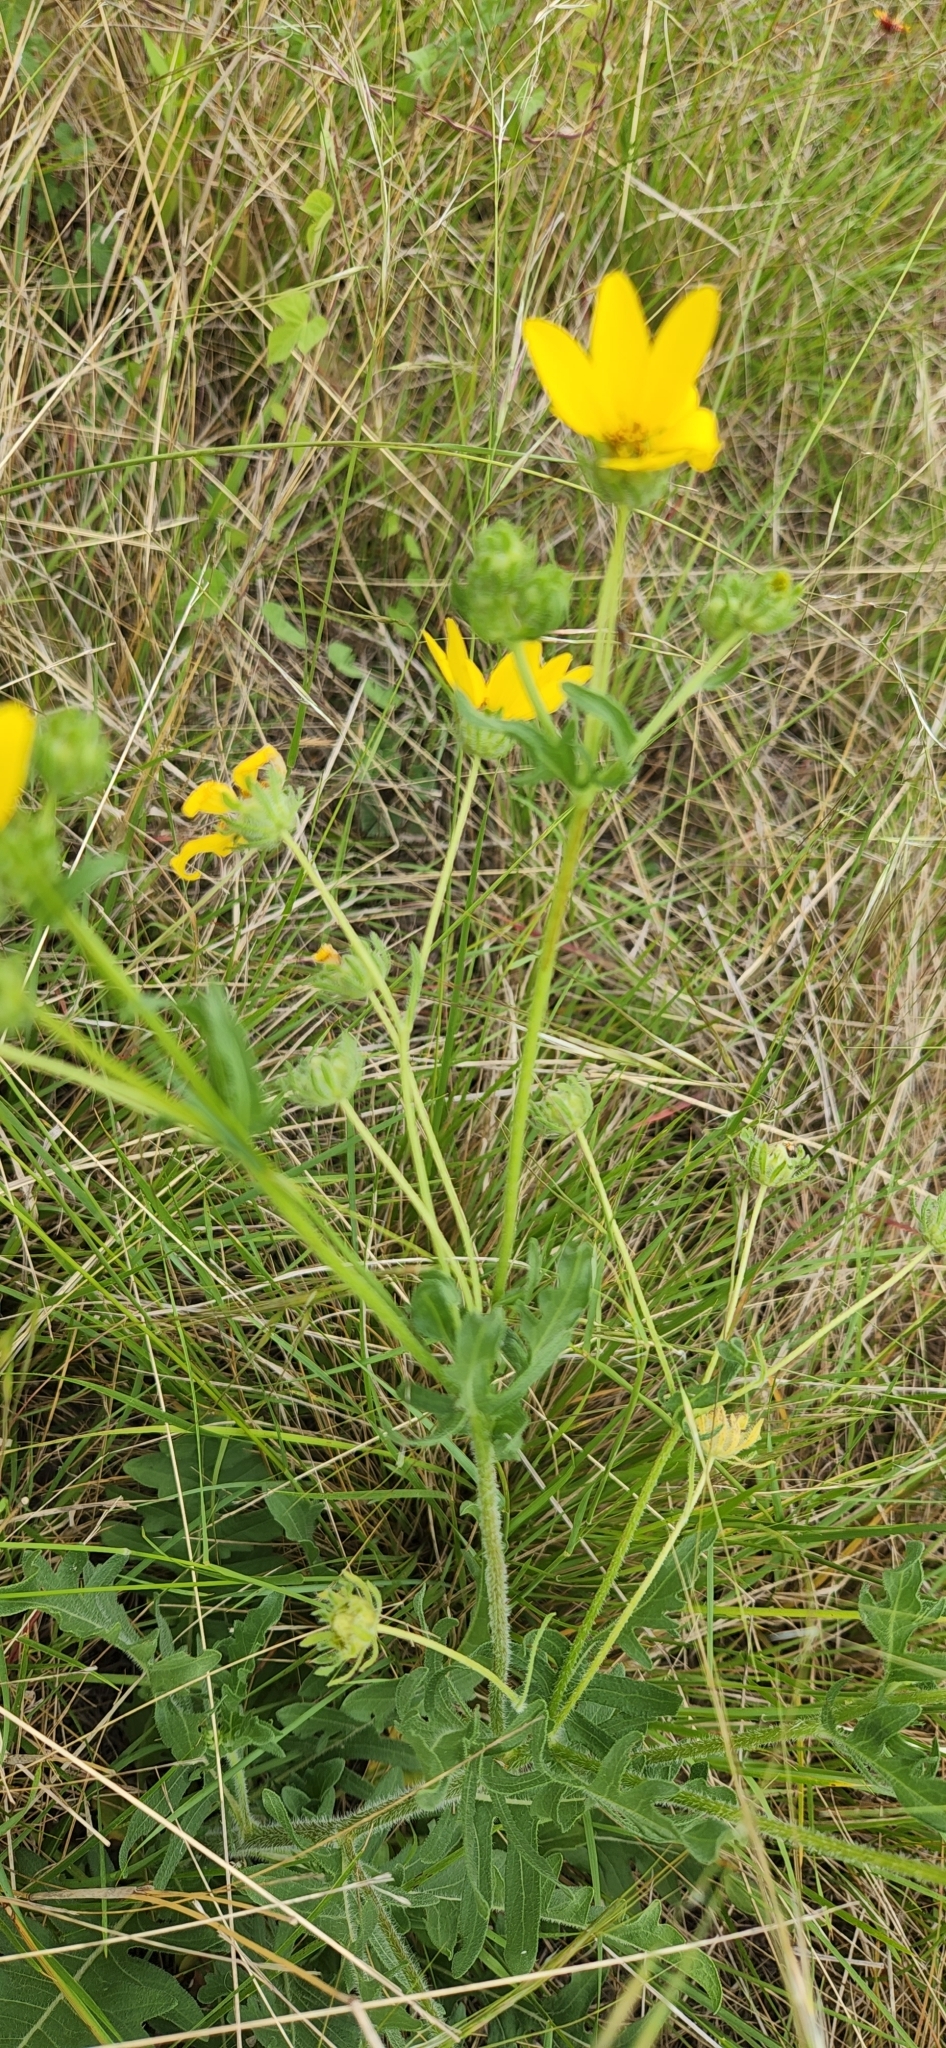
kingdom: Plantae
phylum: Tracheophyta
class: Magnoliopsida
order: Asterales
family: Asteraceae
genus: Engelmannia
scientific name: Engelmannia peristenia
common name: Engelmann's daisy
